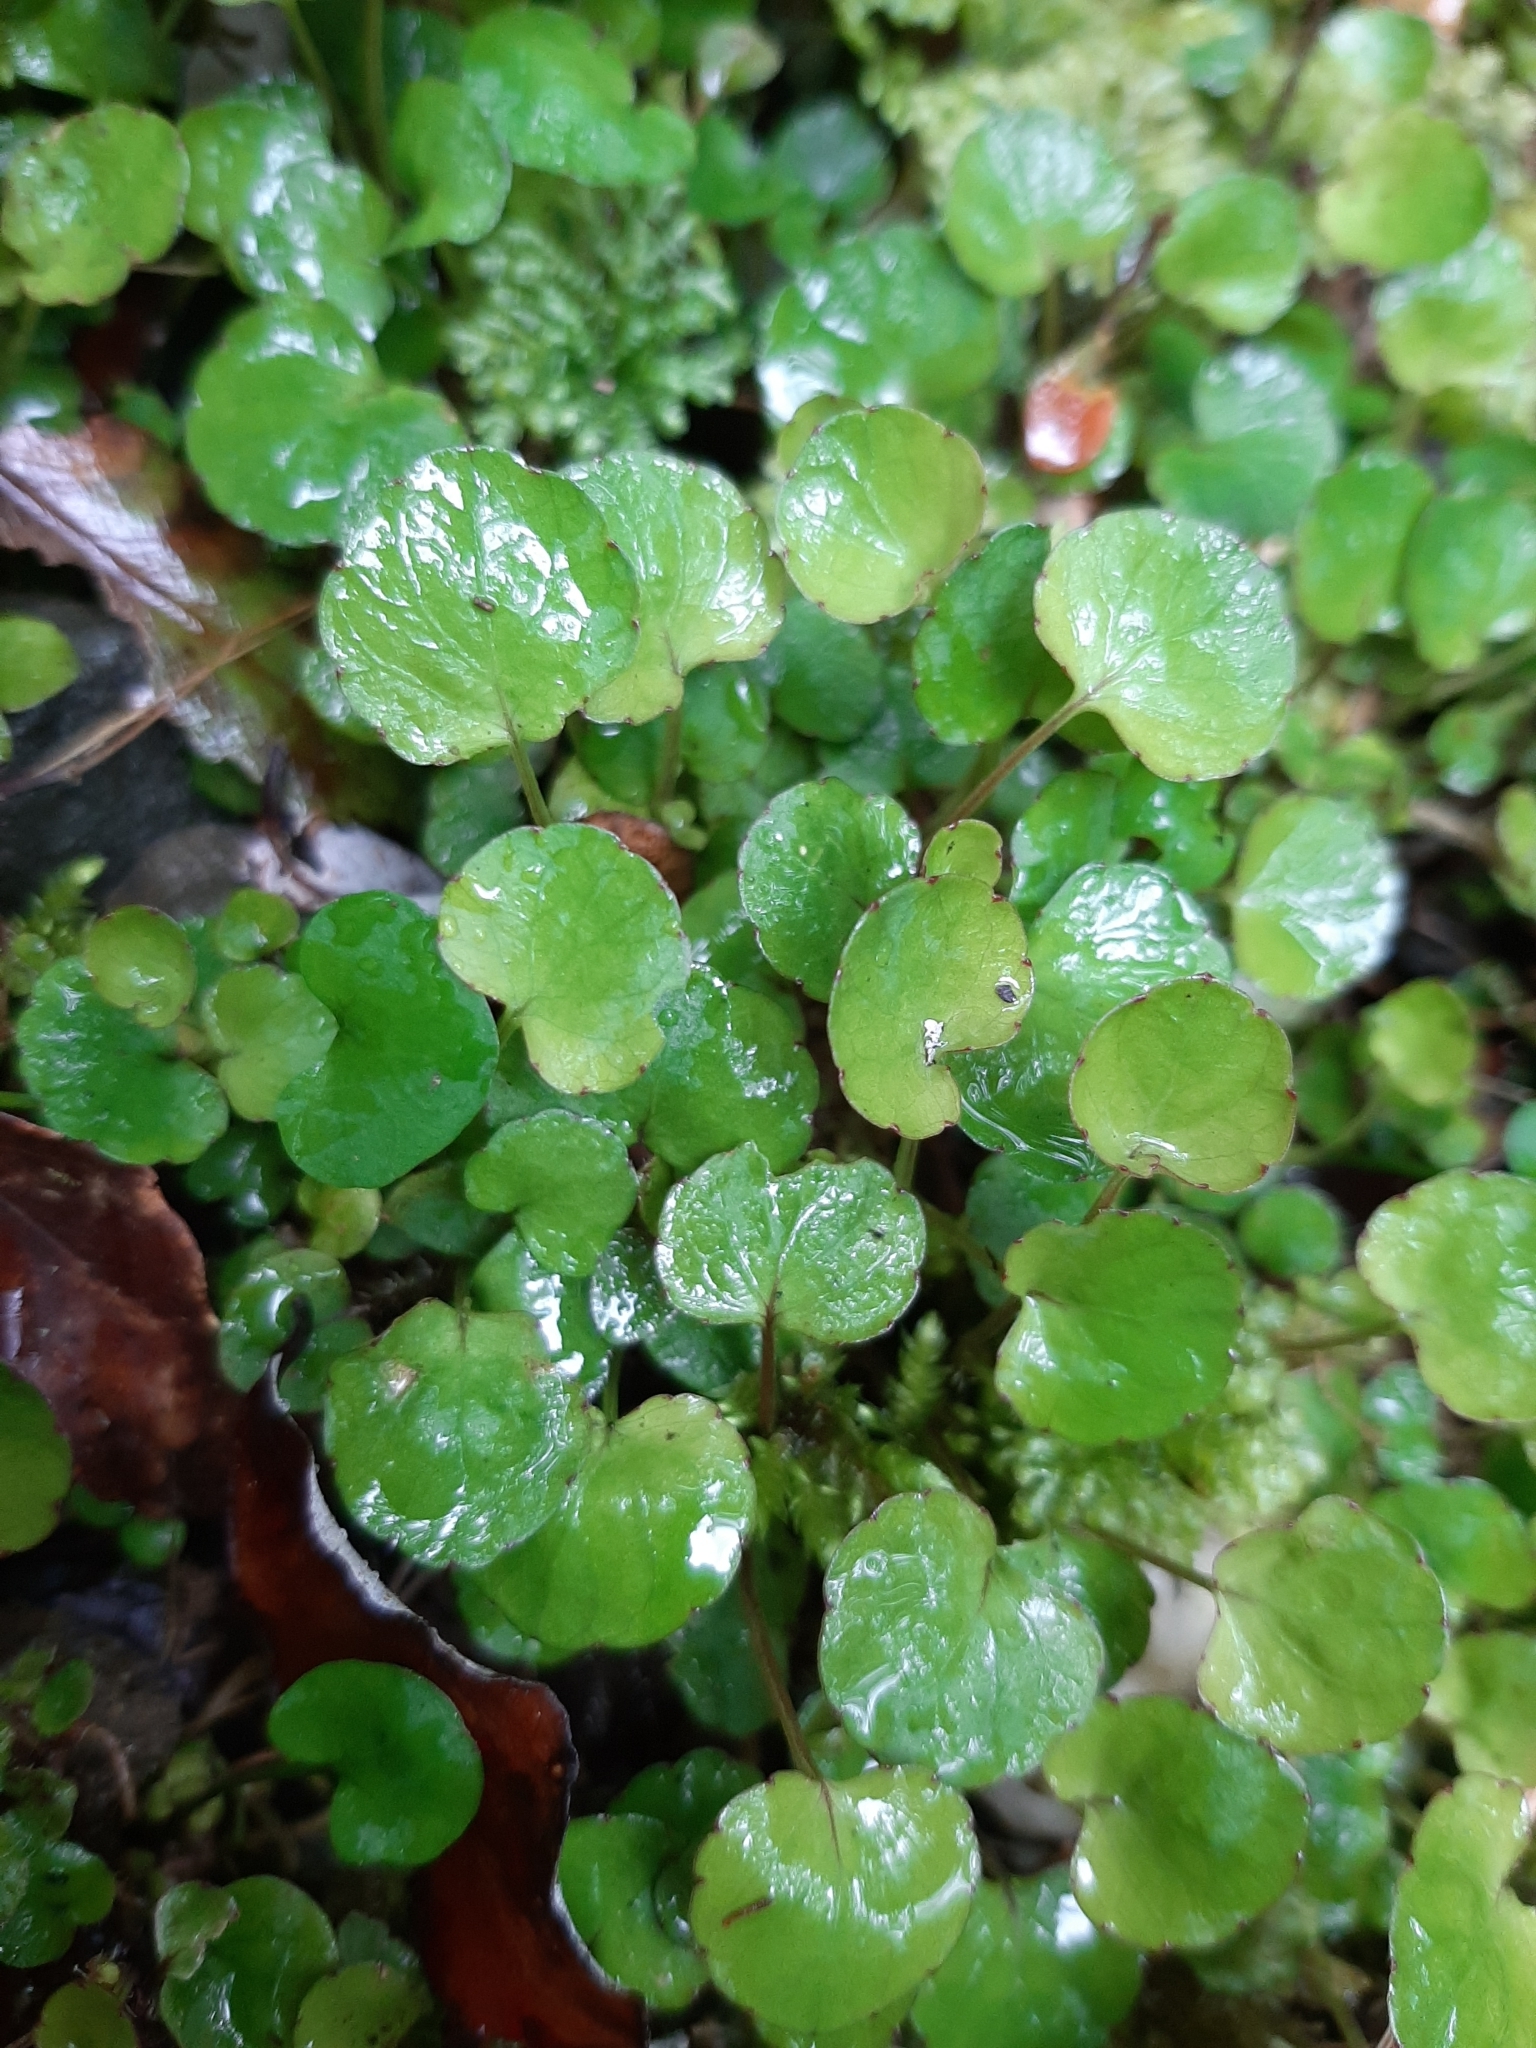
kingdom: Plantae
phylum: Tracheophyta
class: Magnoliopsida
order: Malpighiales
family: Violaceae
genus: Viola
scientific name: Viola filicaulis
